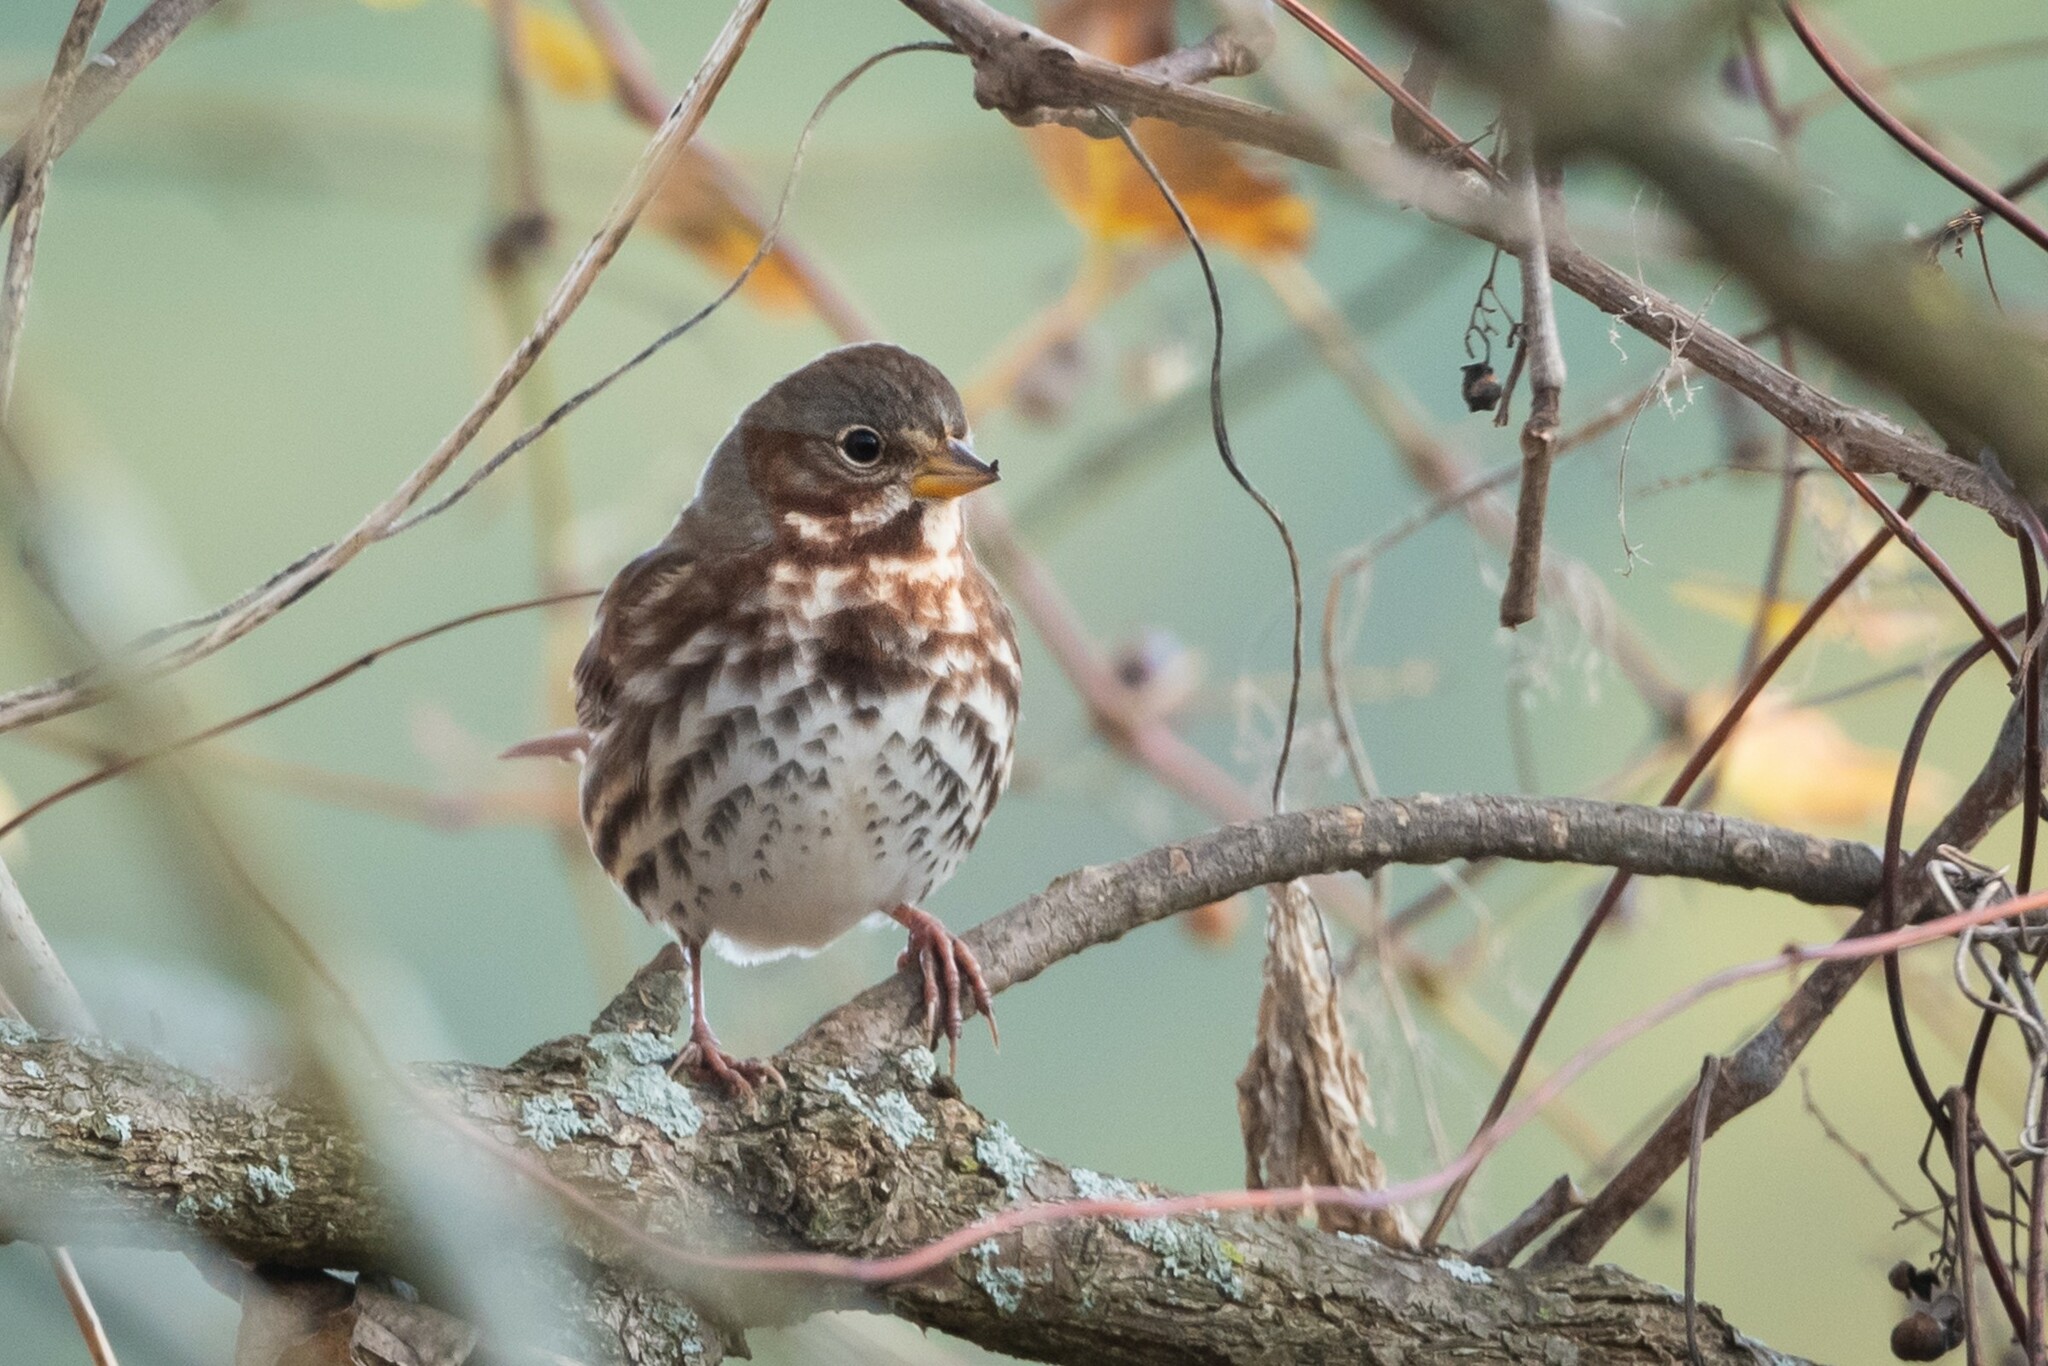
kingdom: Animalia
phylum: Chordata
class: Aves
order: Passeriformes
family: Passerellidae
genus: Passerella
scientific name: Passerella iliaca
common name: Fox sparrow
